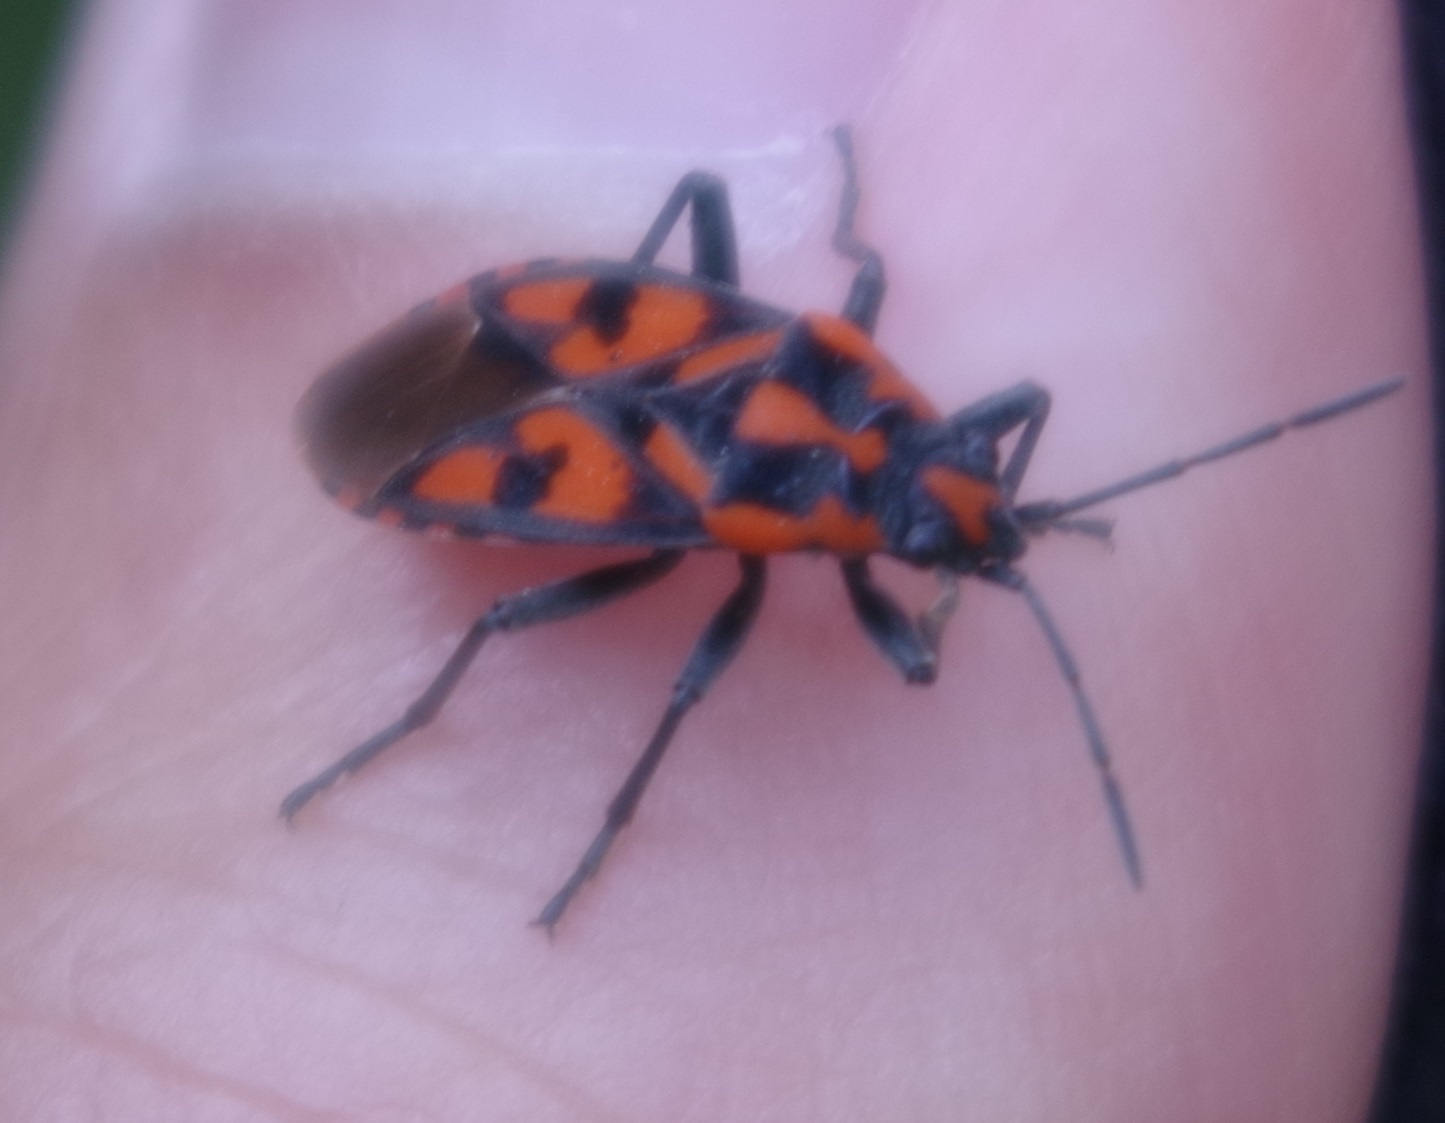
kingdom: Animalia
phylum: Arthropoda
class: Insecta
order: Hemiptera
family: Lygaeidae
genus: Spilostethus
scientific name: Spilostethus saxatilis
